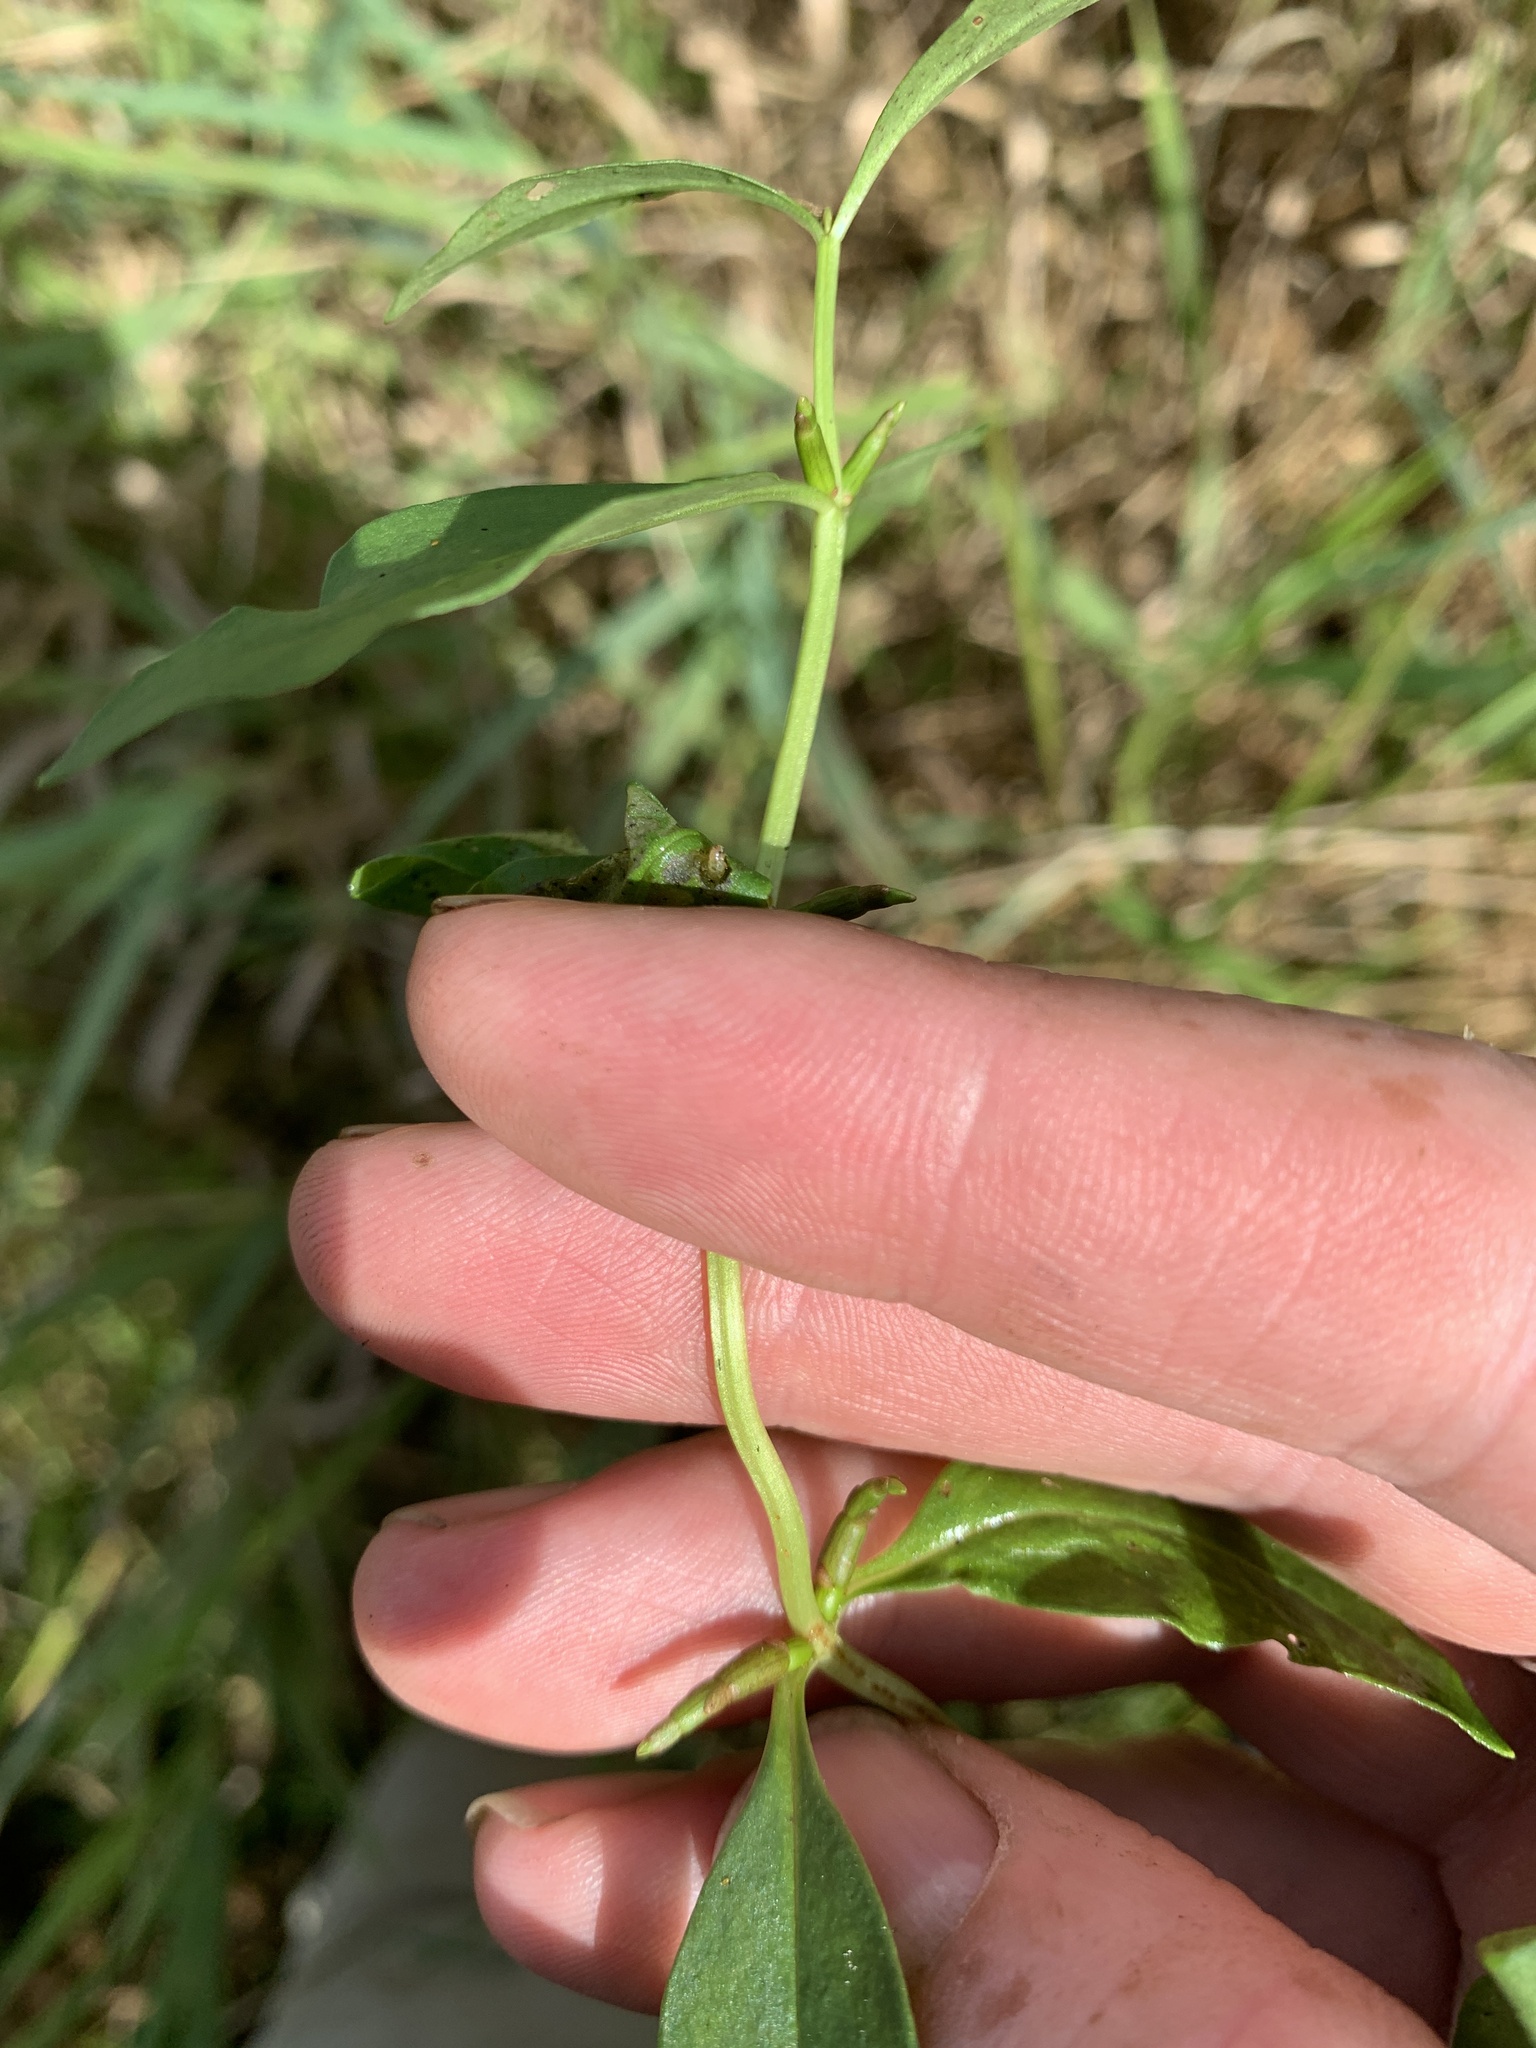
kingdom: Plantae
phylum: Tracheophyta
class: Magnoliopsida
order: Ericales
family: Primulaceae
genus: Lysimachia
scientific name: Lysimachia terrestris
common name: Lake loosestrife
